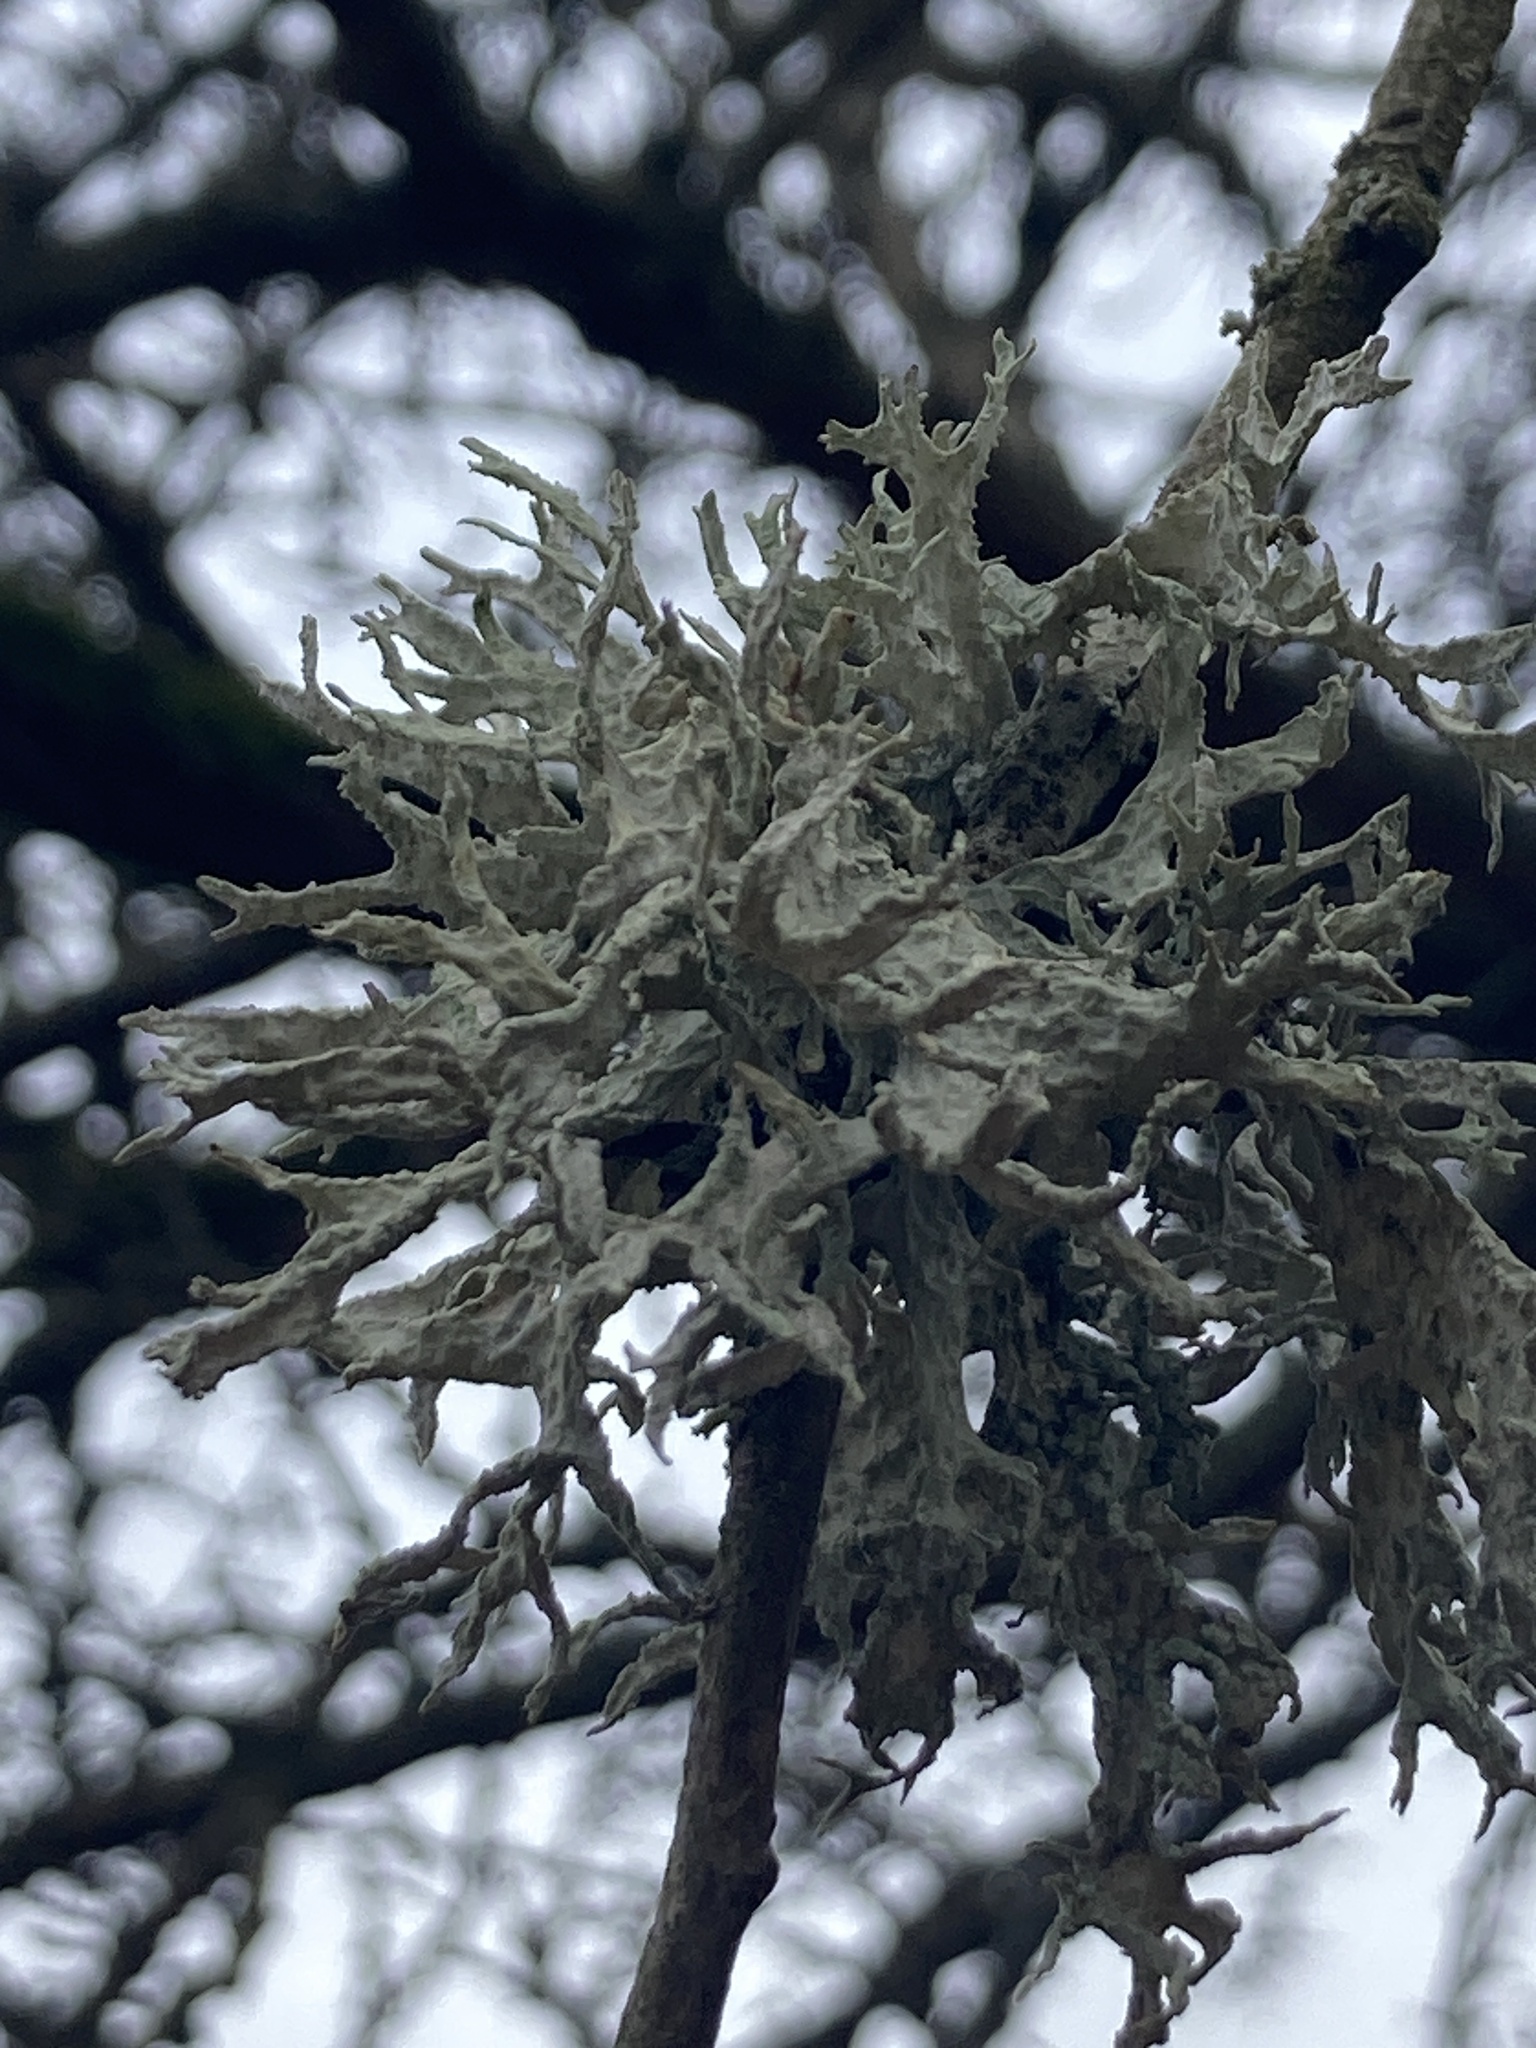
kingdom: Fungi
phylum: Ascomycota
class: Lecanoromycetes
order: Lecanorales
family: Parmeliaceae
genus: Evernia
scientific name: Evernia prunastri
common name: Oak moss
